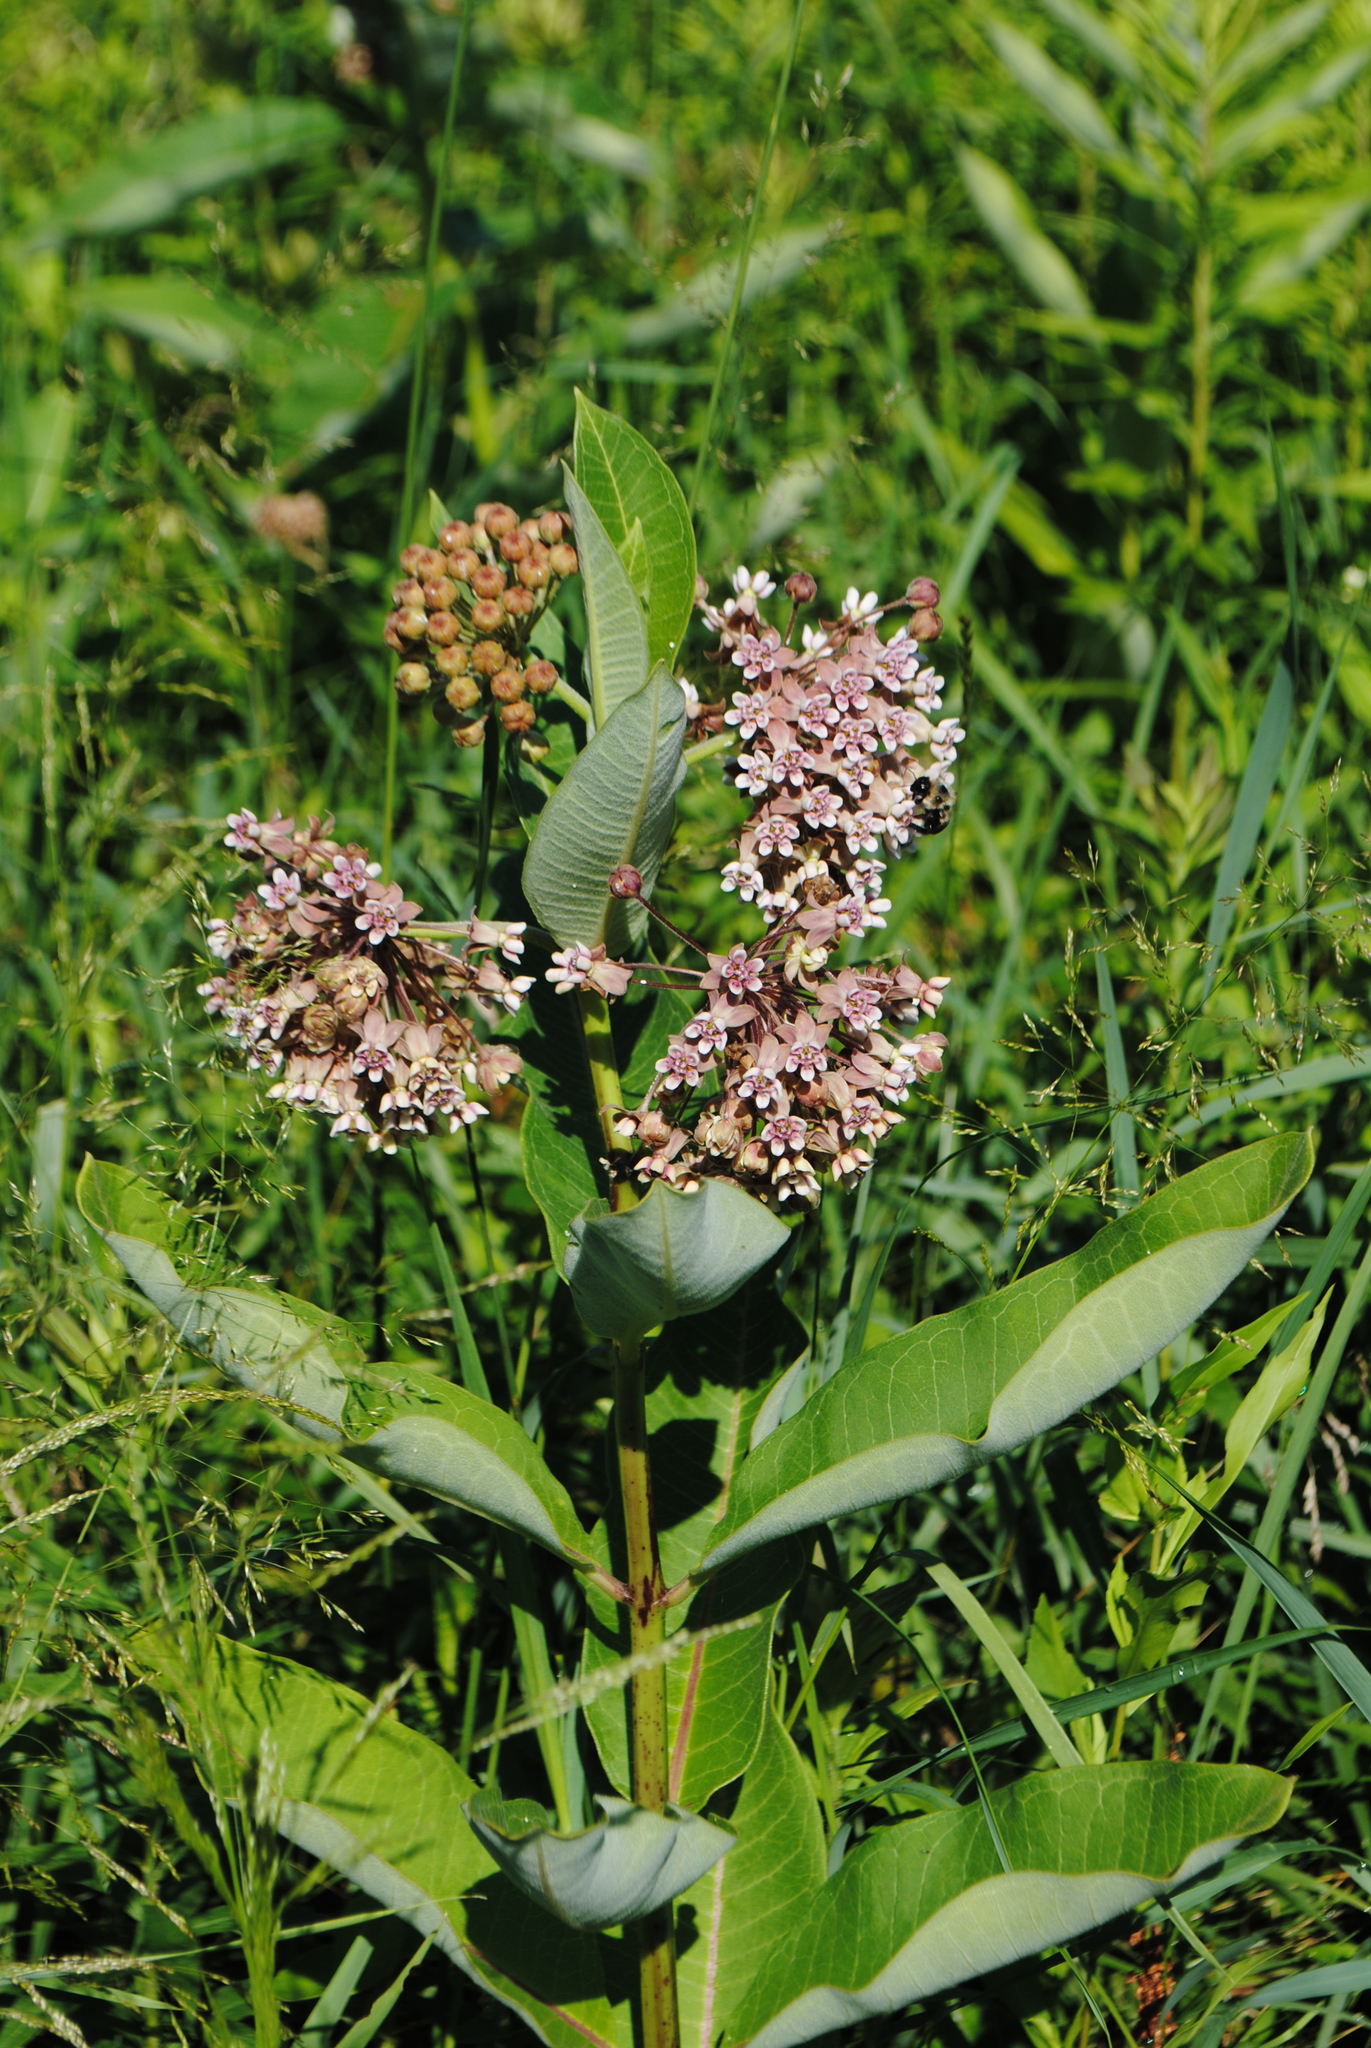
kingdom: Plantae
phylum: Tracheophyta
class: Magnoliopsida
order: Gentianales
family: Apocynaceae
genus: Asclepias
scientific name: Asclepias syriaca
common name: Common milkweed
